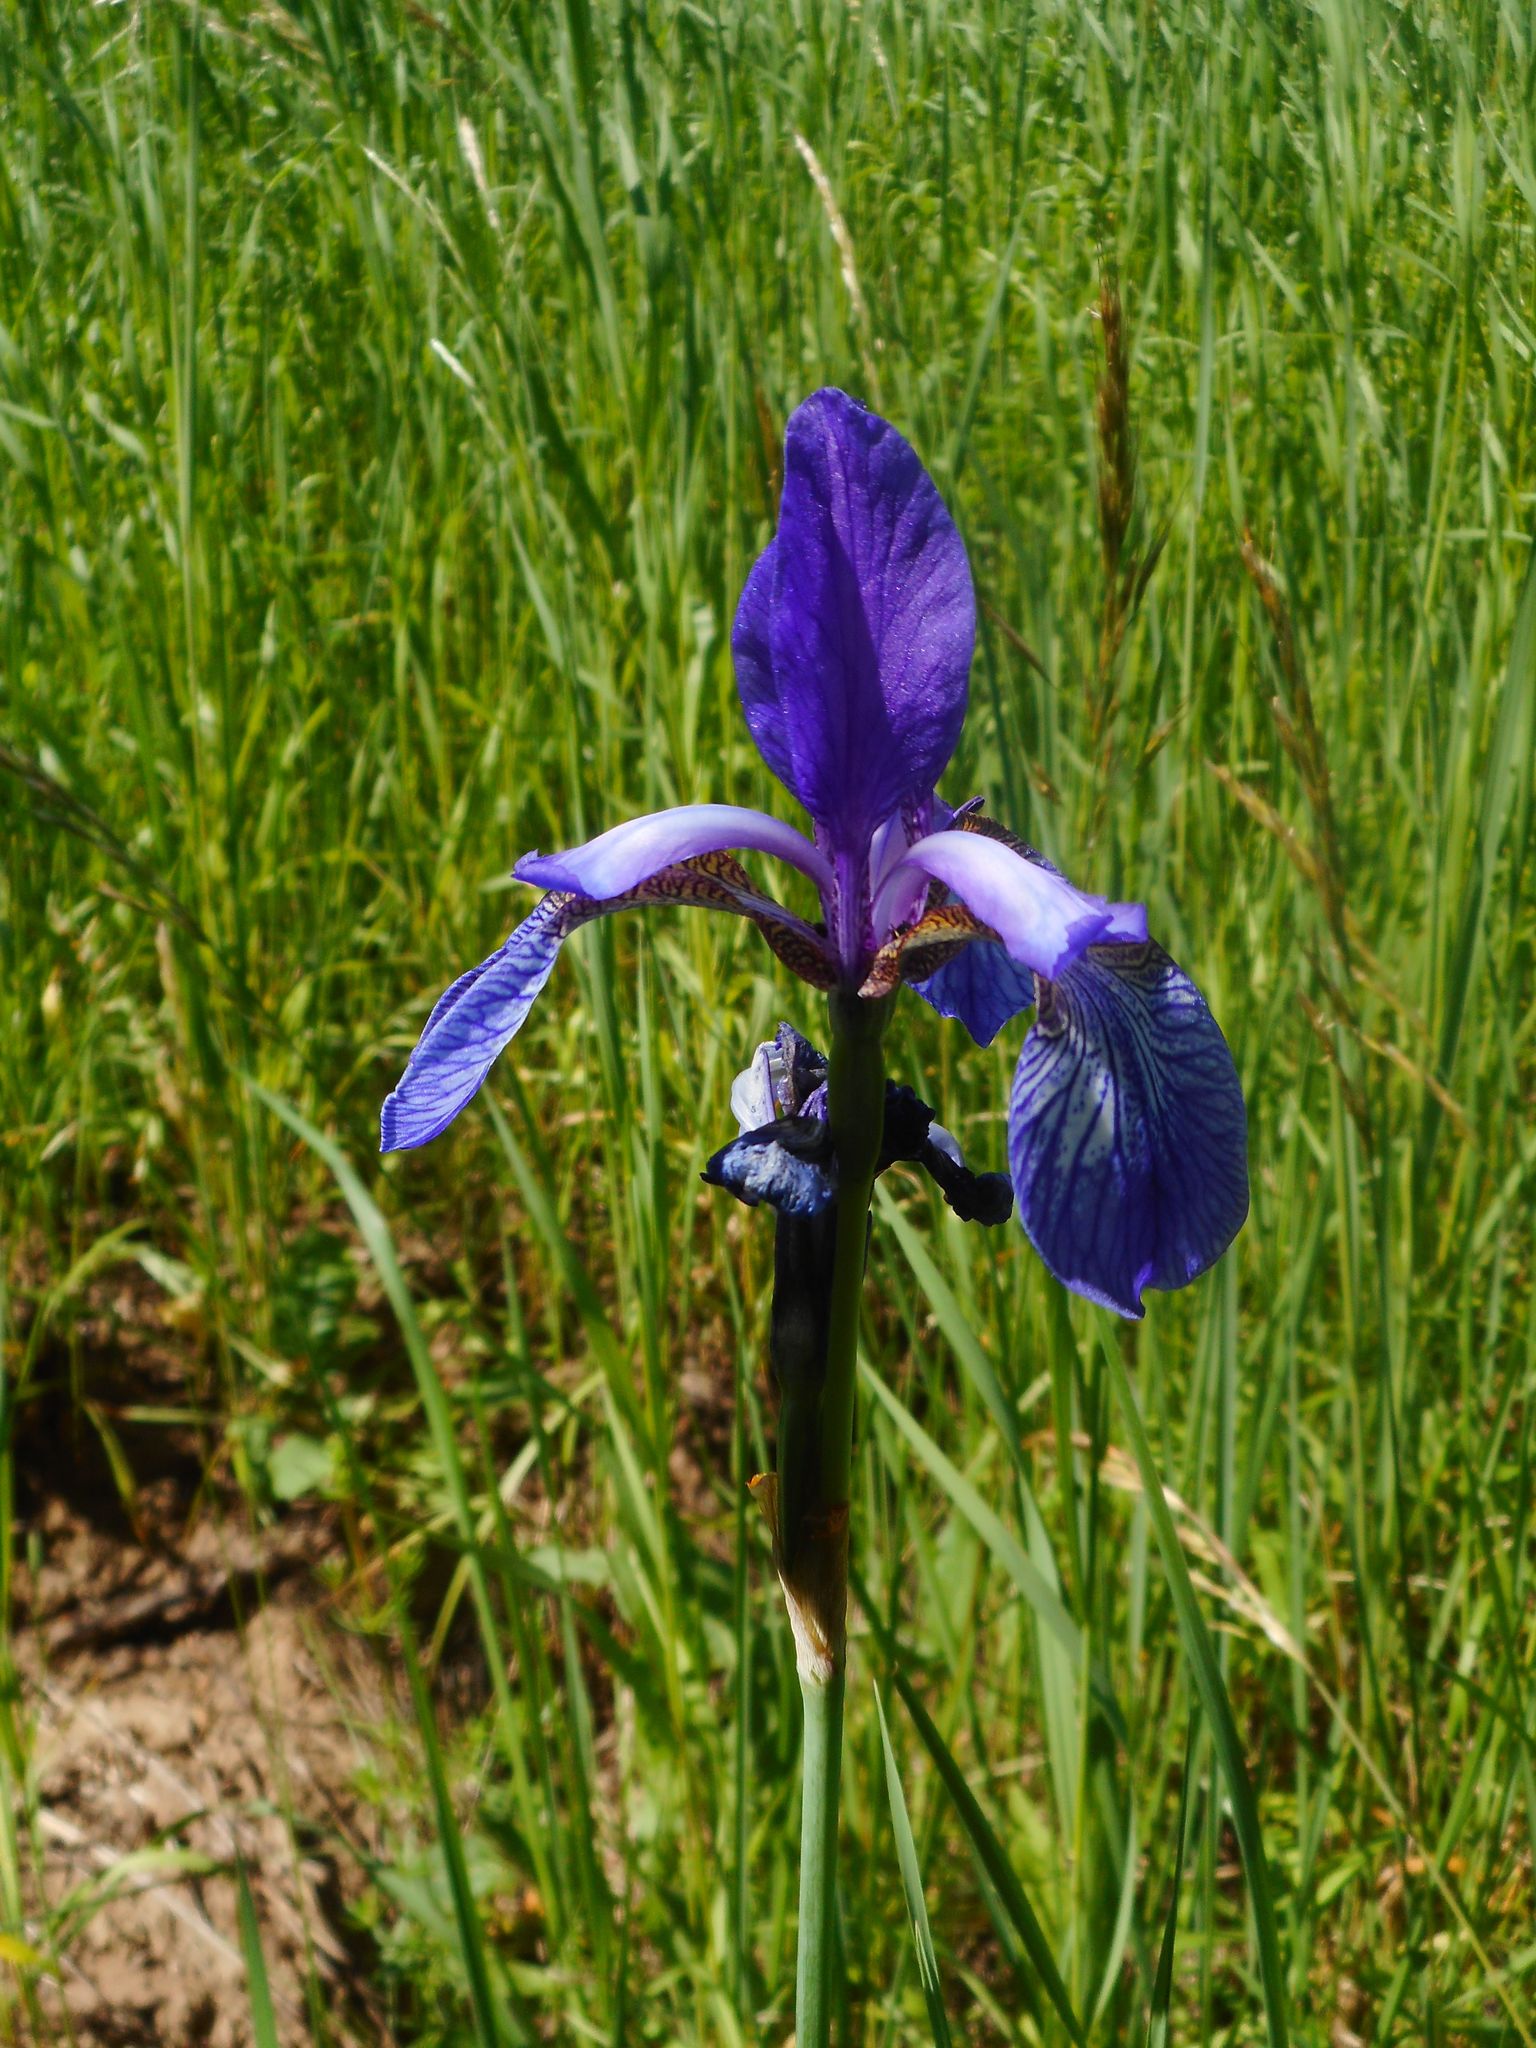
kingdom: Plantae
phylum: Tracheophyta
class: Liliopsida
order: Asparagales
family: Iridaceae
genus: Iris
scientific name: Iris sibirica
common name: Siberian iris
